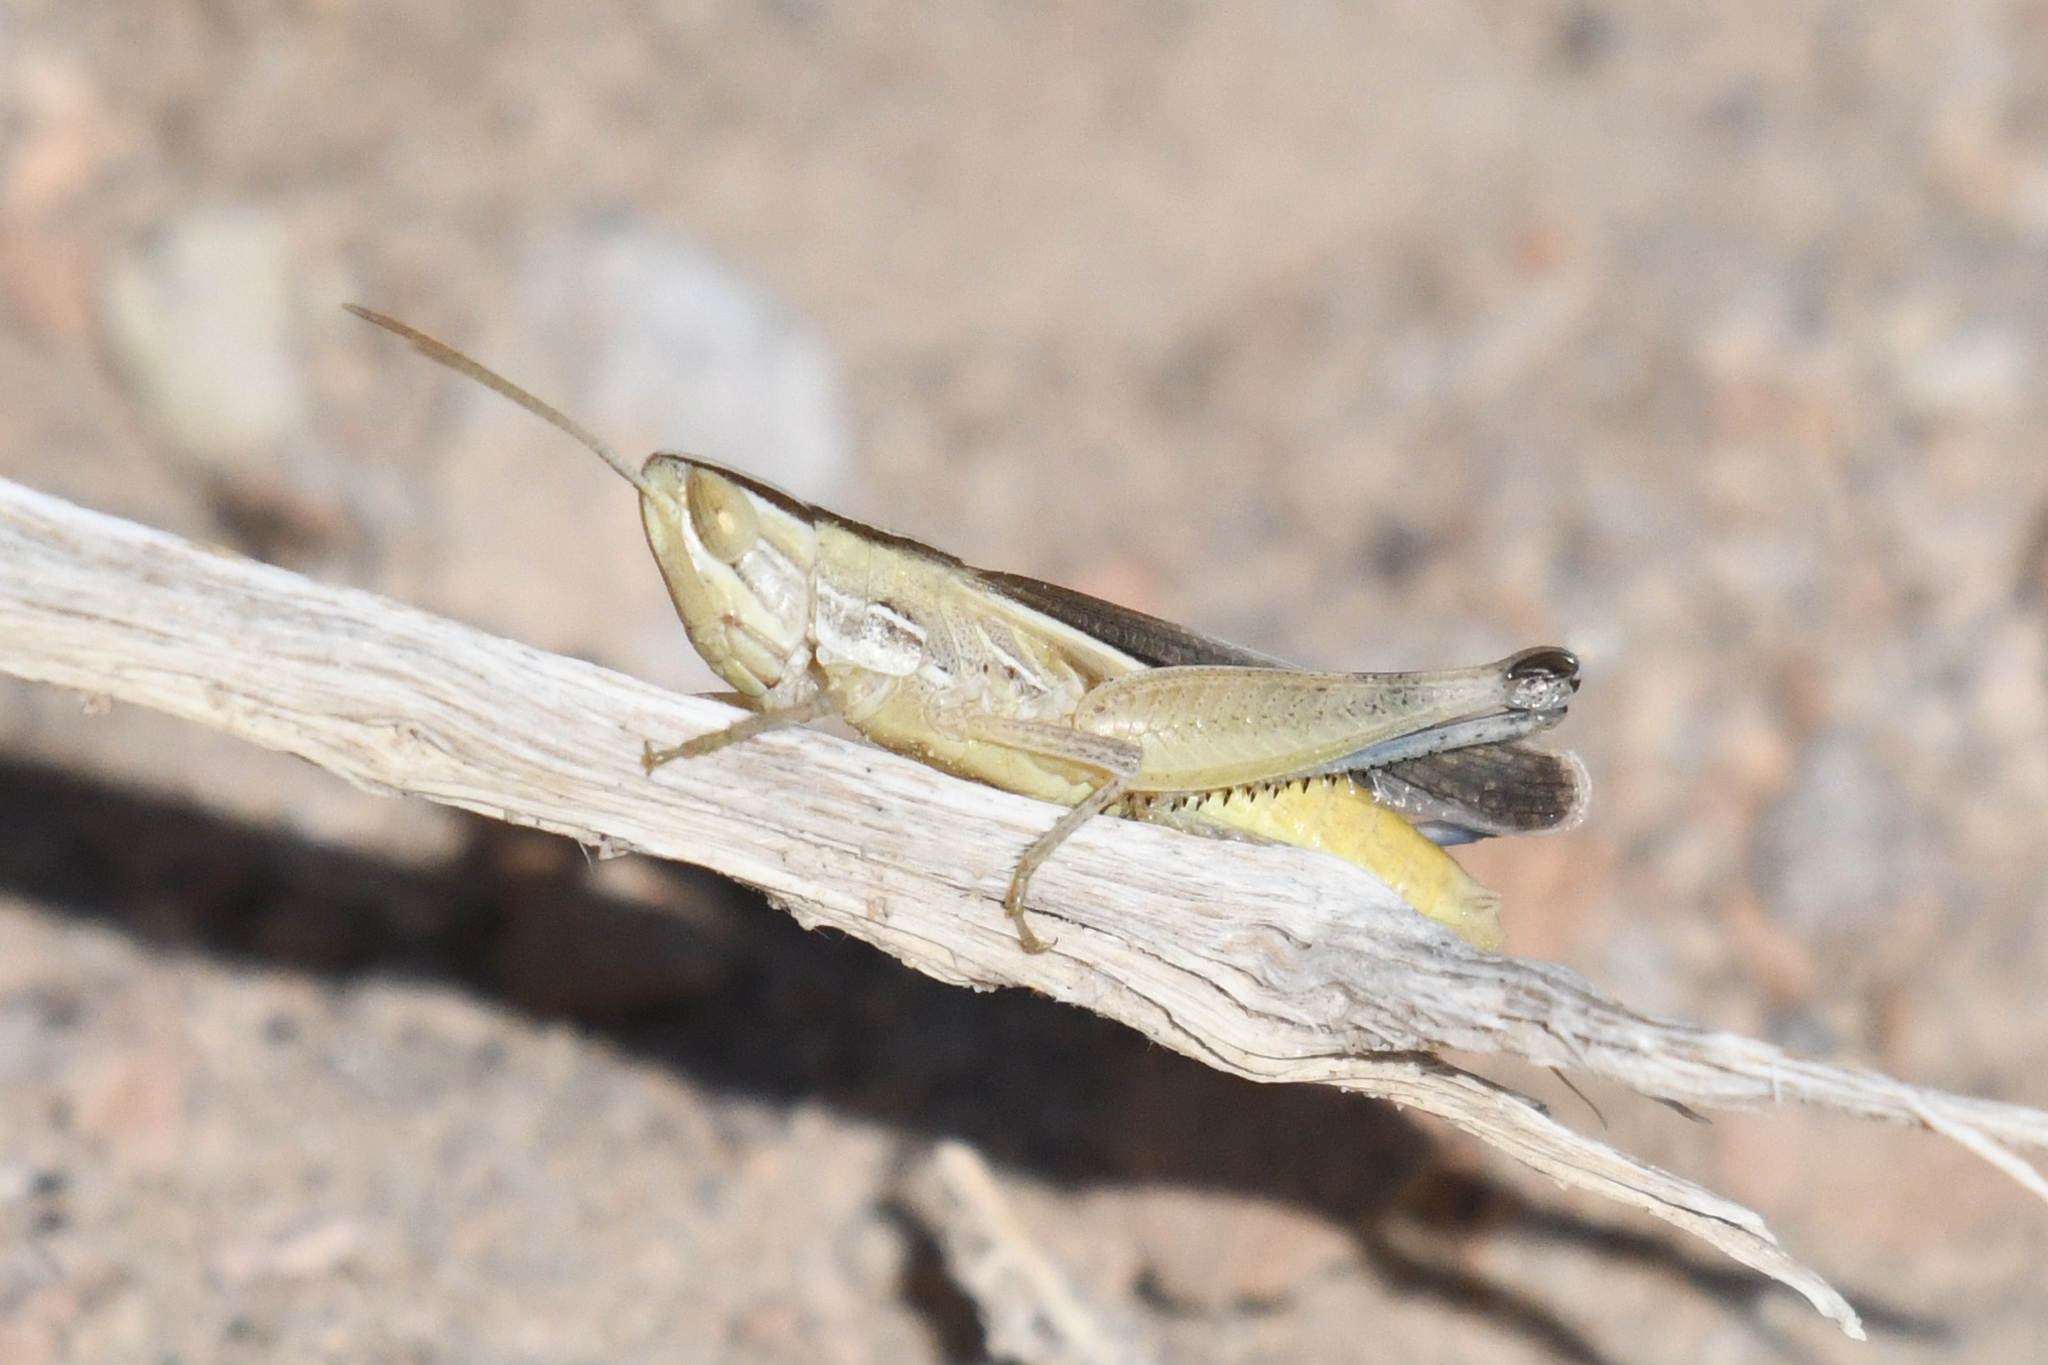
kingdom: Animalia
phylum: Arthropoda
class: Insecta
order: Orthoptera
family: Acrididae
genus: Amphitornus
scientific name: Amphitornus coloradus
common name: Striped grasshopper
